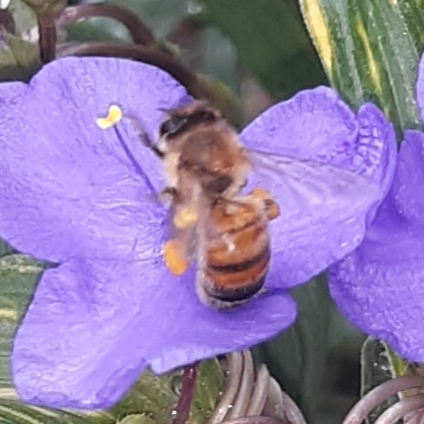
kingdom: Animalia
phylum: Arthropoda
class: Insecta
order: Hymenoptera
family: Apidae
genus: Apis
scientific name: Apis mellifera
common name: Honey bee
